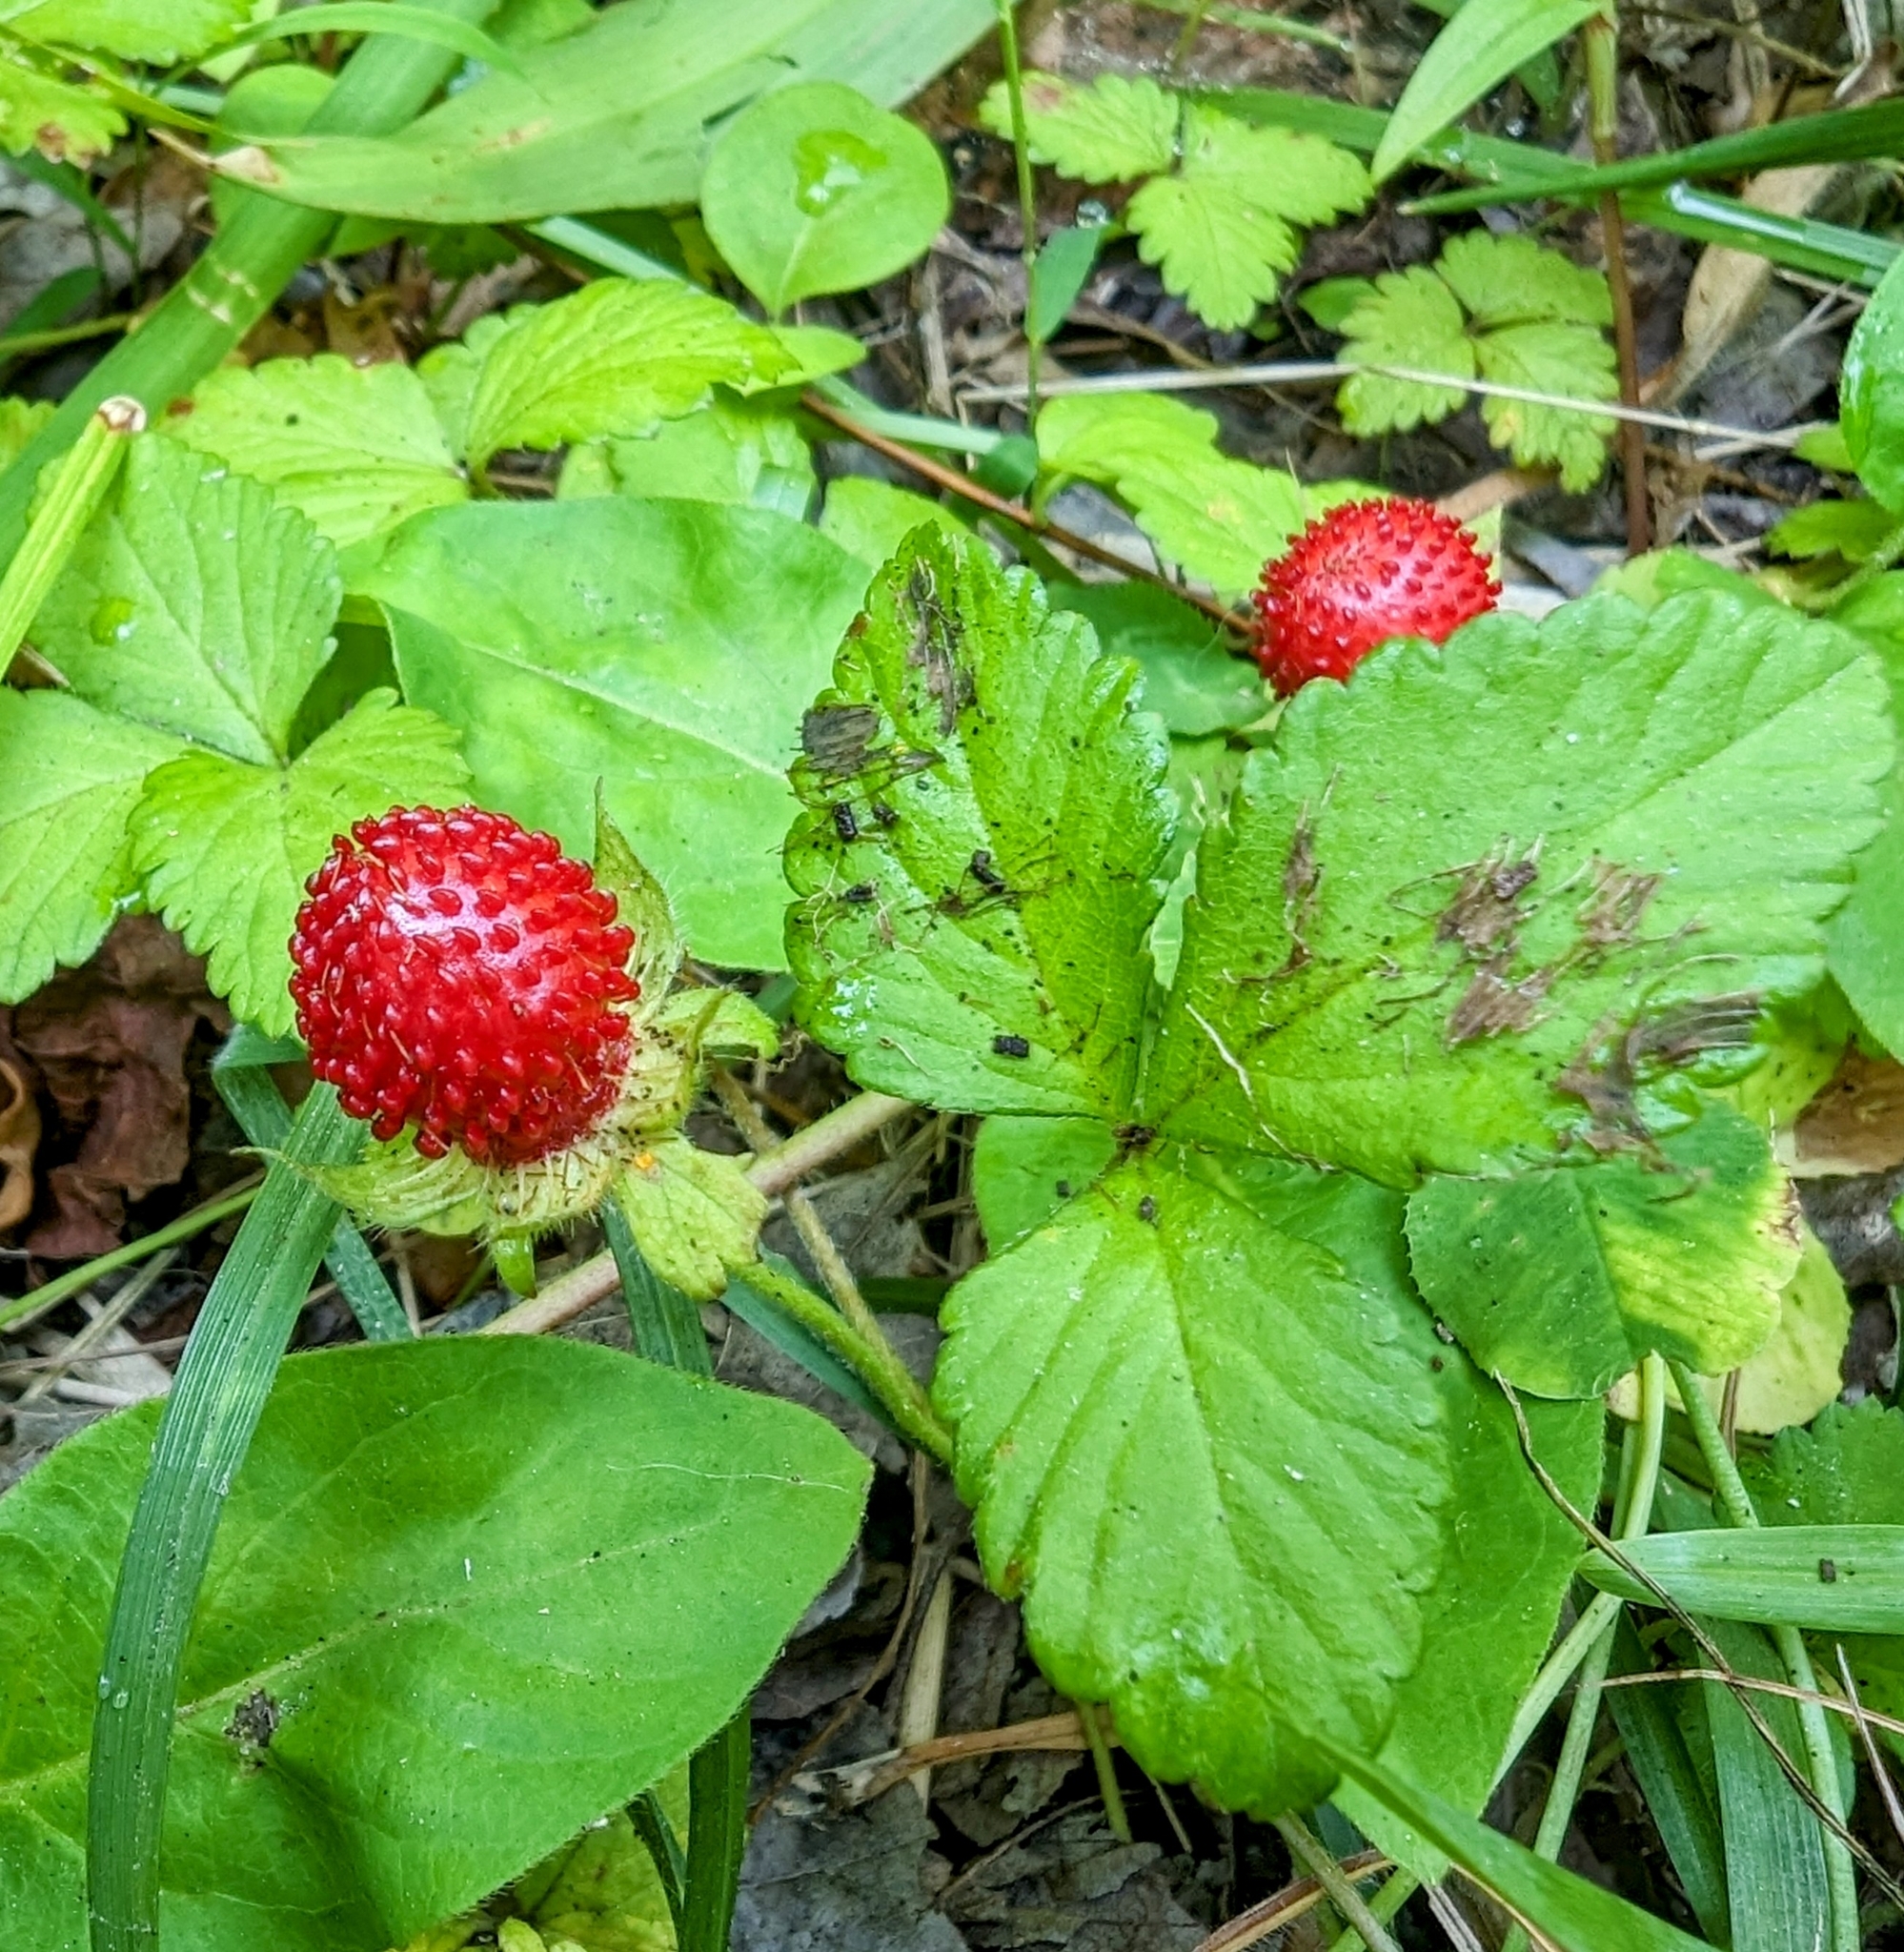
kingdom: Plantae
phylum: Tracheophyta
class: Magnoliopsida
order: Rosales
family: Rosaceae
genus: Potentilla
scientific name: Potentilla indica
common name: Yellow-flowered strawberry
